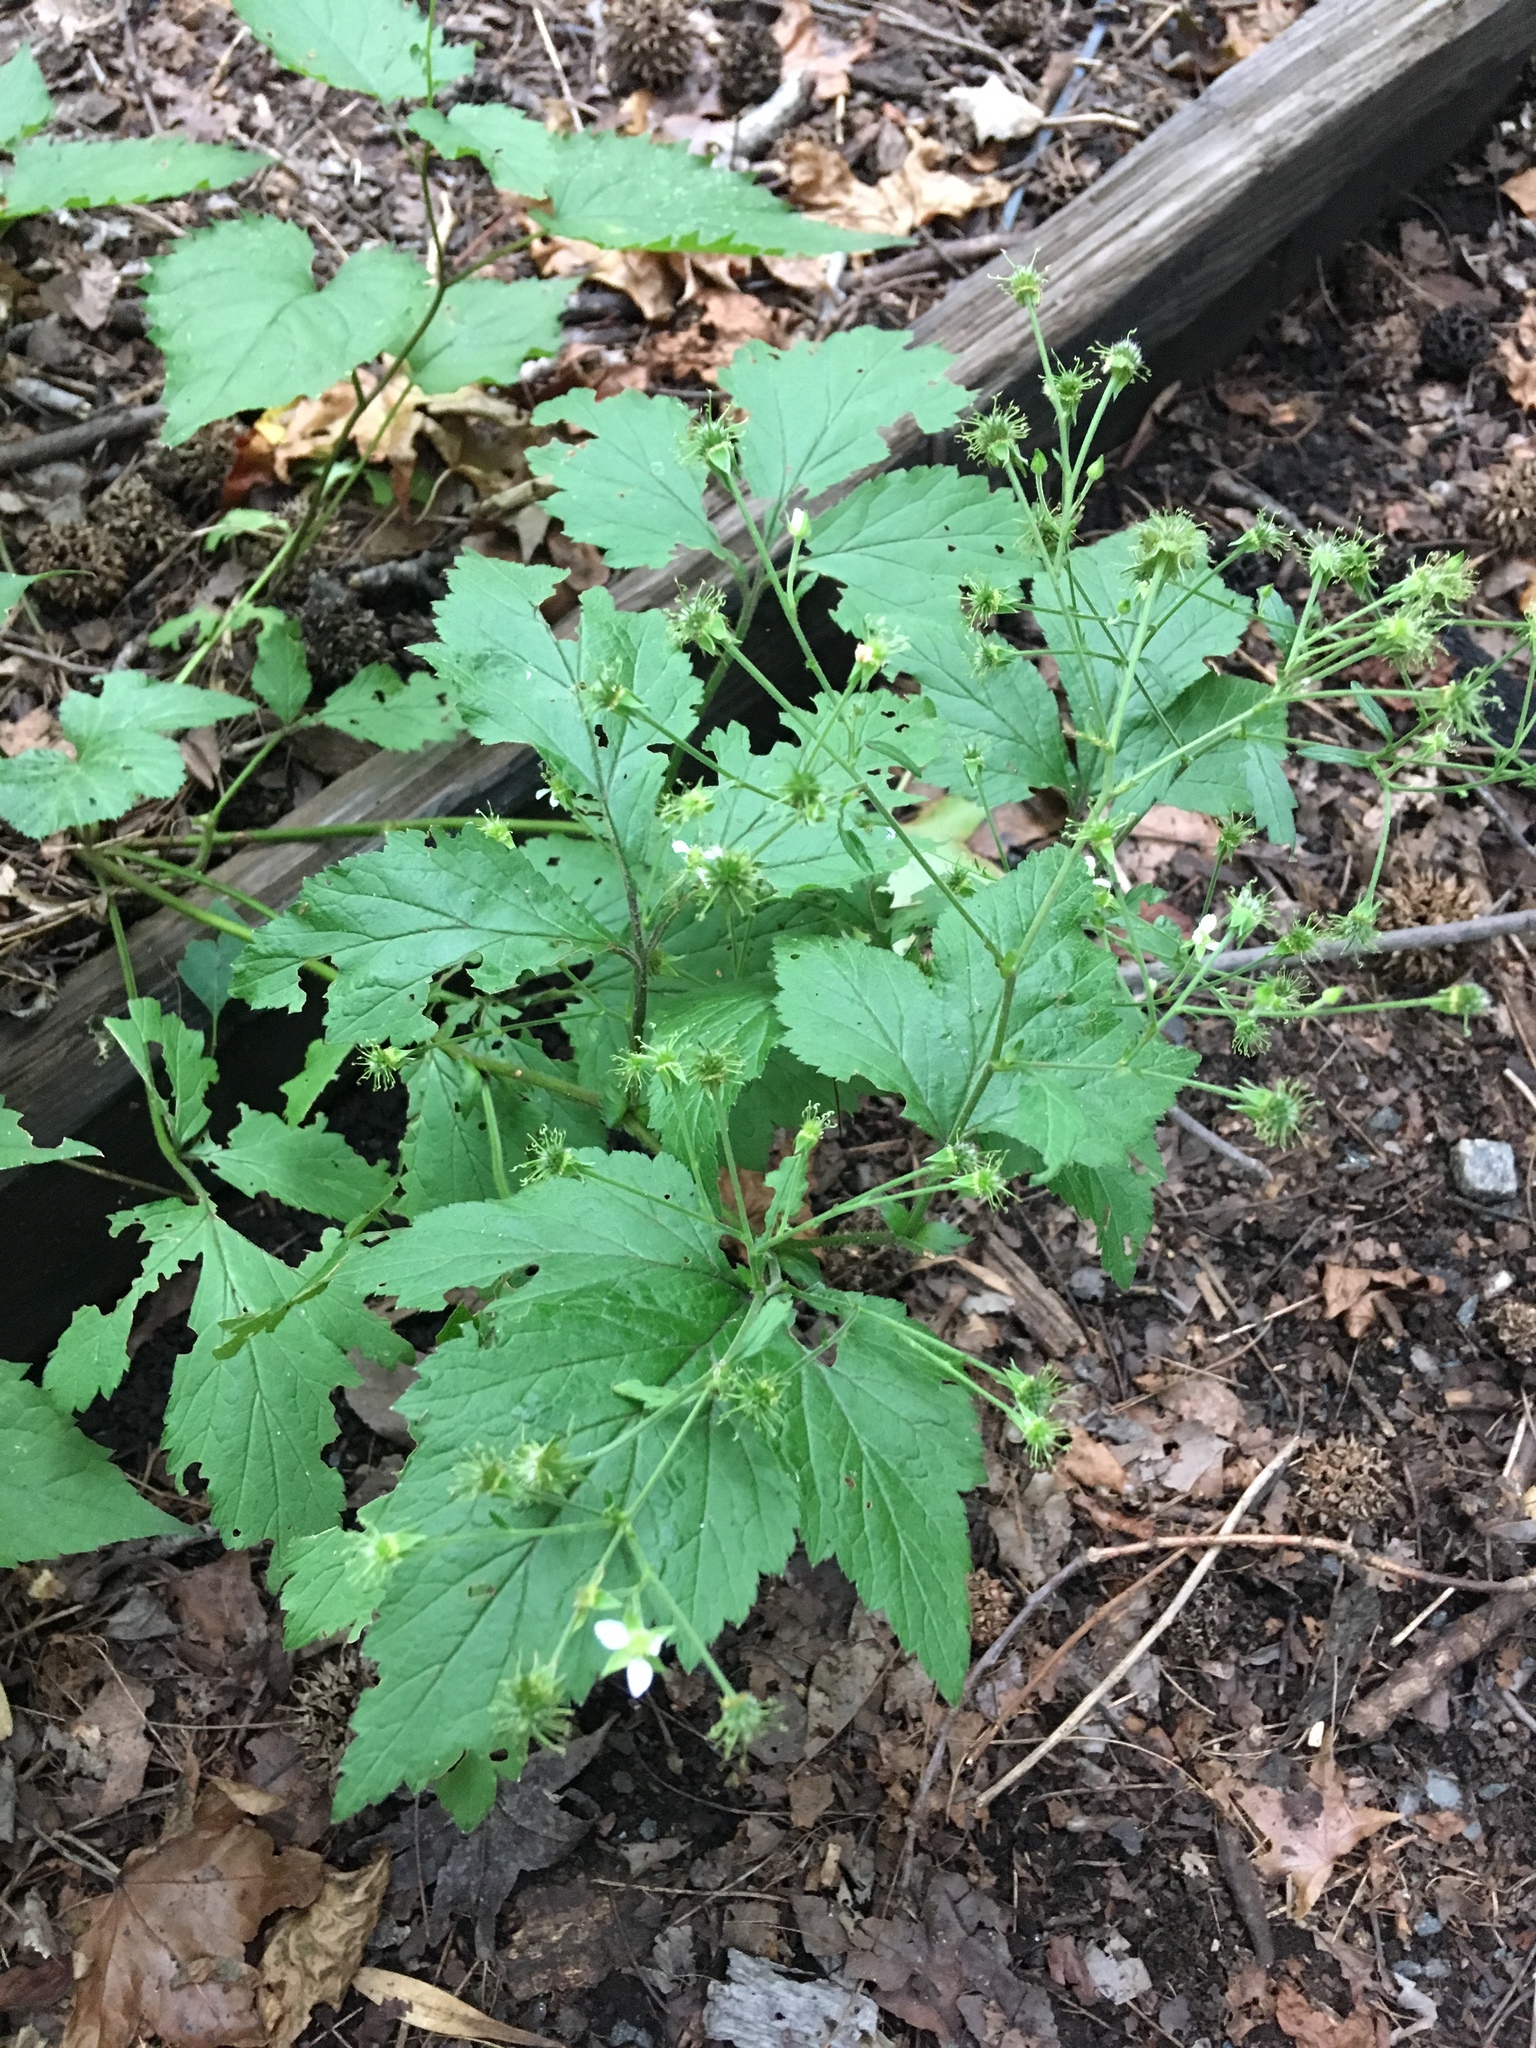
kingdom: Plantae
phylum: Tracheophyta
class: Magnoliopsida
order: Rosales
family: Rosaceae
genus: Geum
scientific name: Geum canadense
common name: White avens
